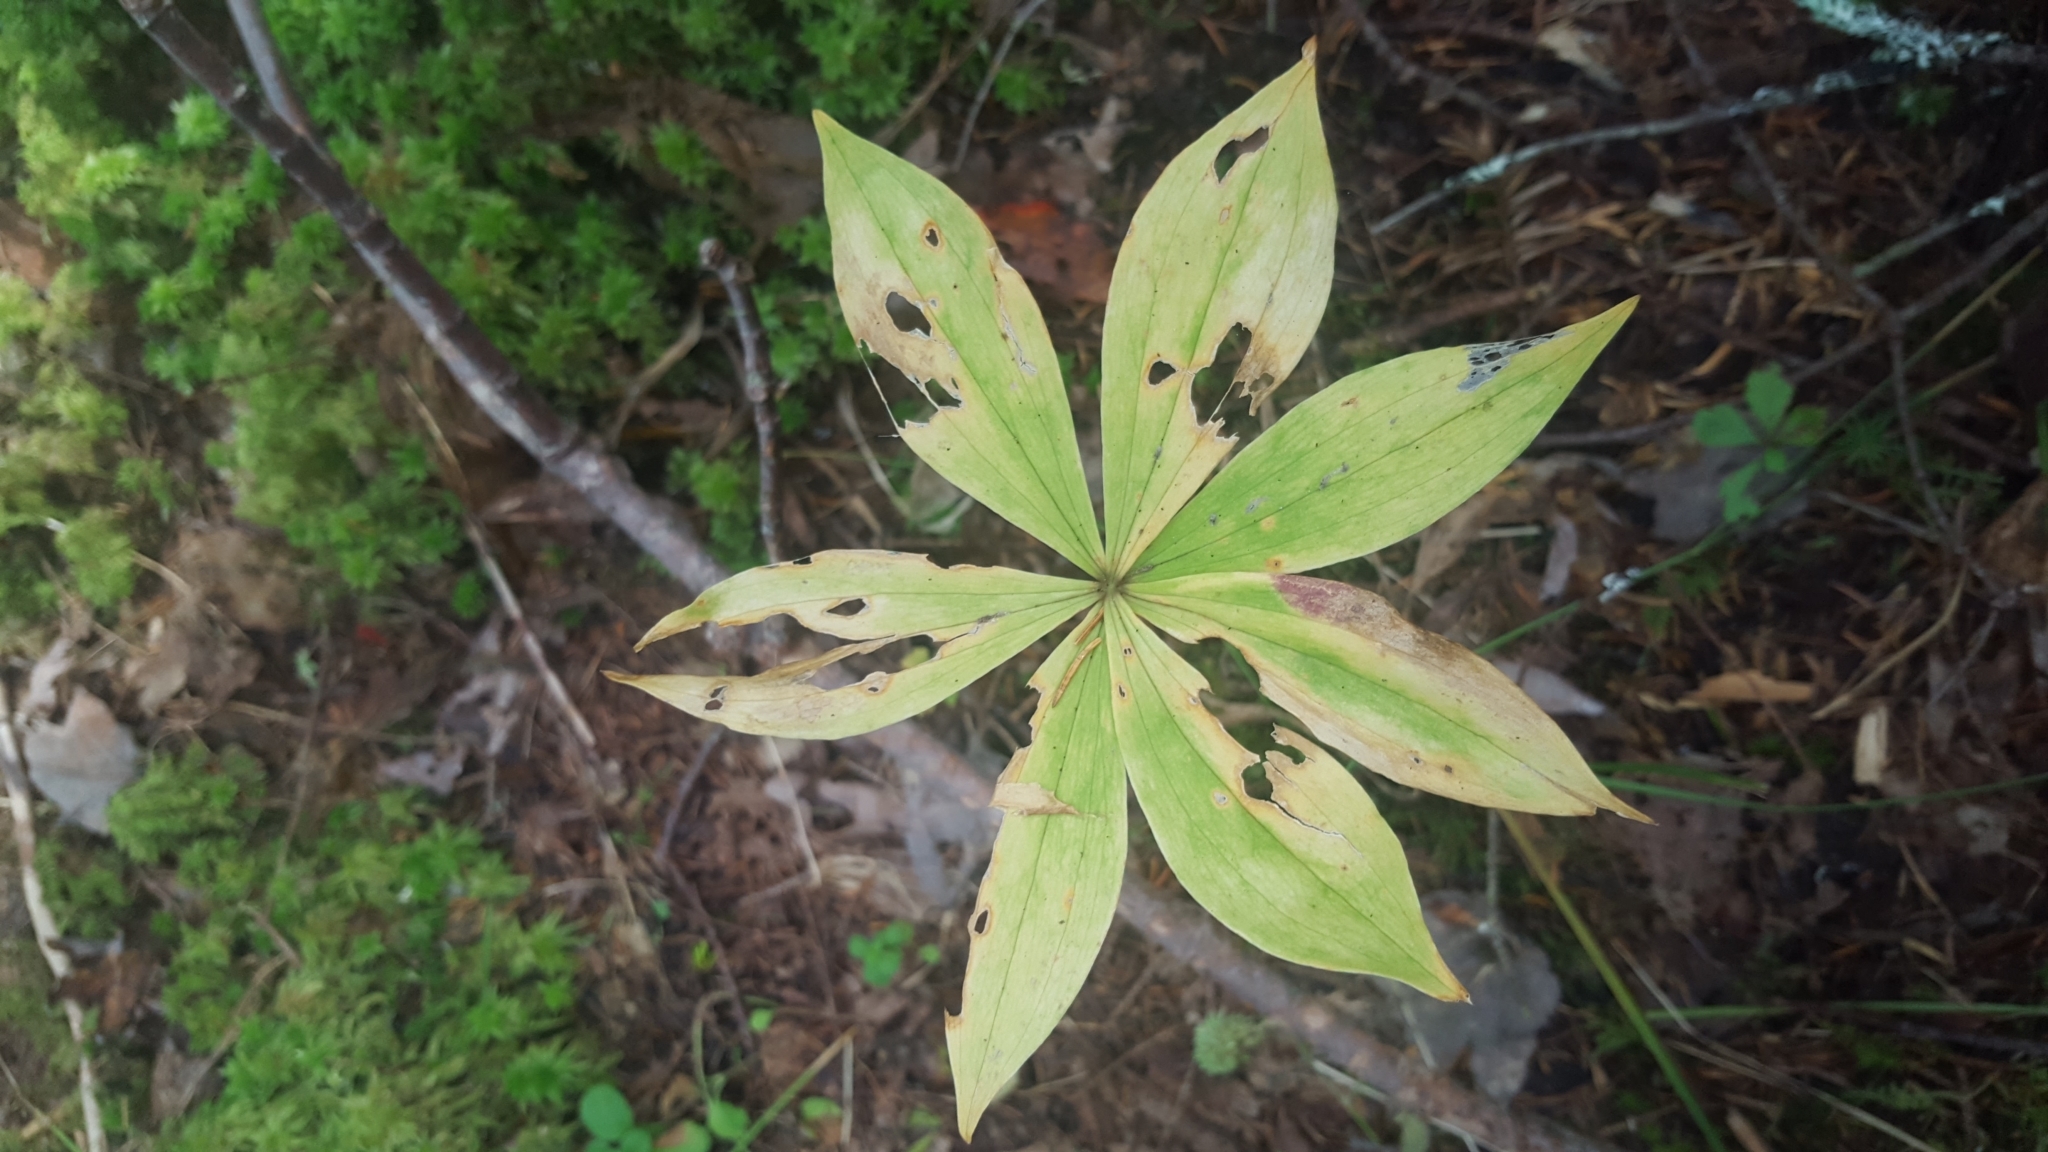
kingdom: Plantae
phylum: Tracheophyta
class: Liliopsida
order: Liliales
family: Liliaceae
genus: Medeola
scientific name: Medeola virginiana
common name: Indian cucumber-root
